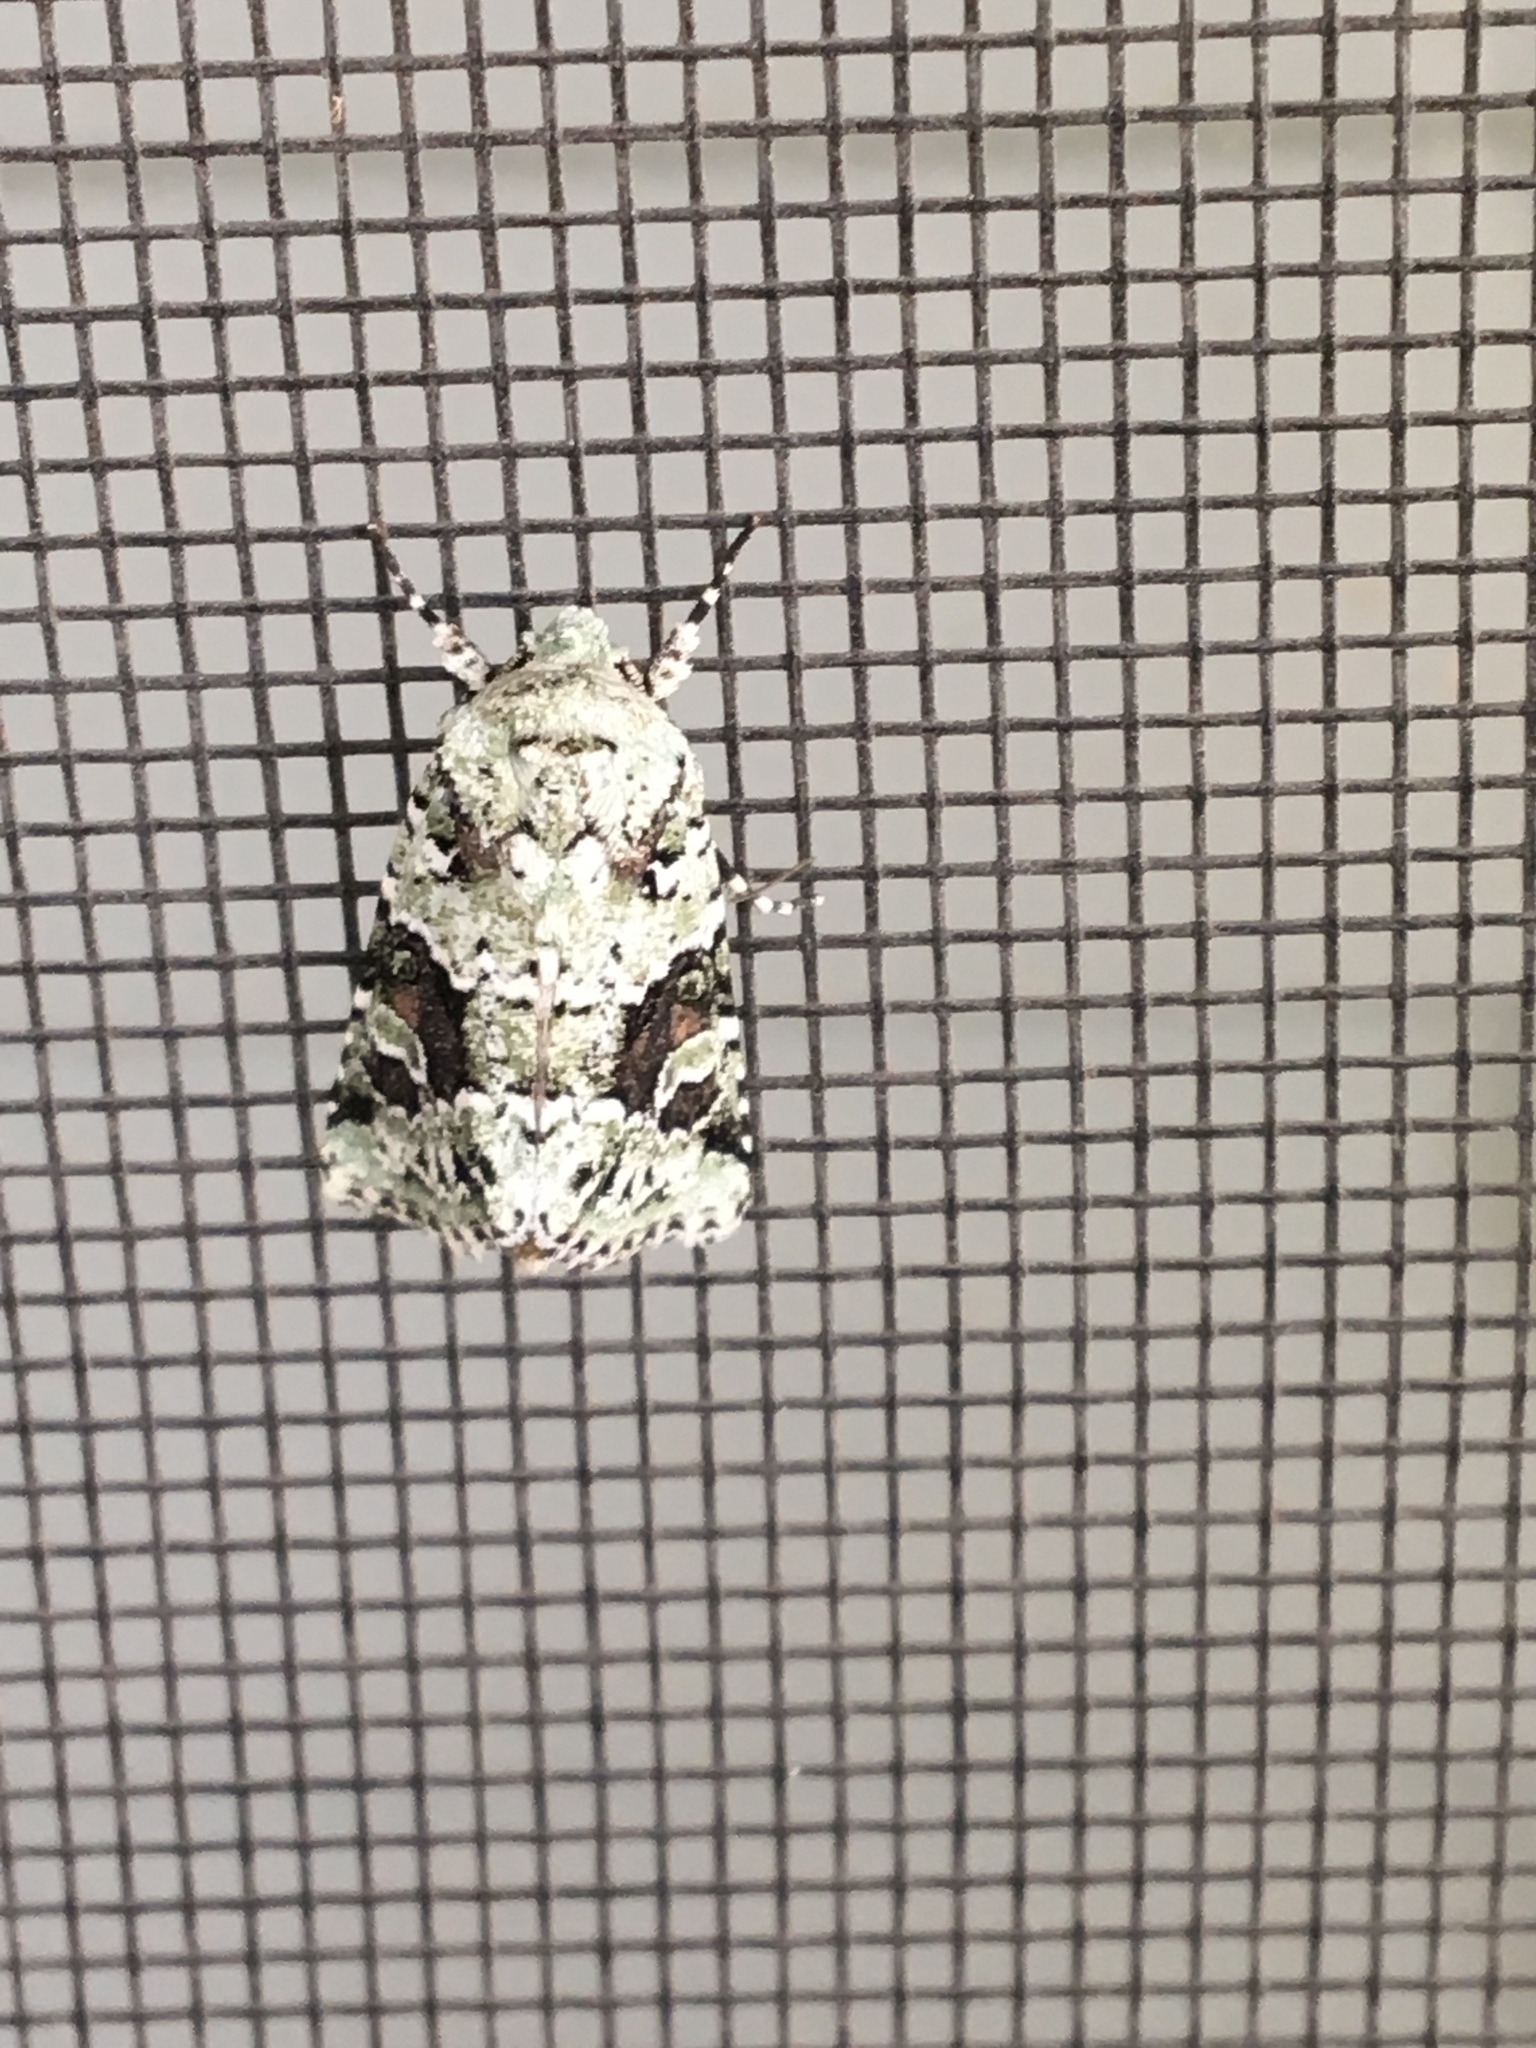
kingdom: Animalia
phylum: Arthropoda
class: Insecta
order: Lepidoptera
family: Noctuidae
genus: Lacinipolia
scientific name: Lacinipolia laudabilis
